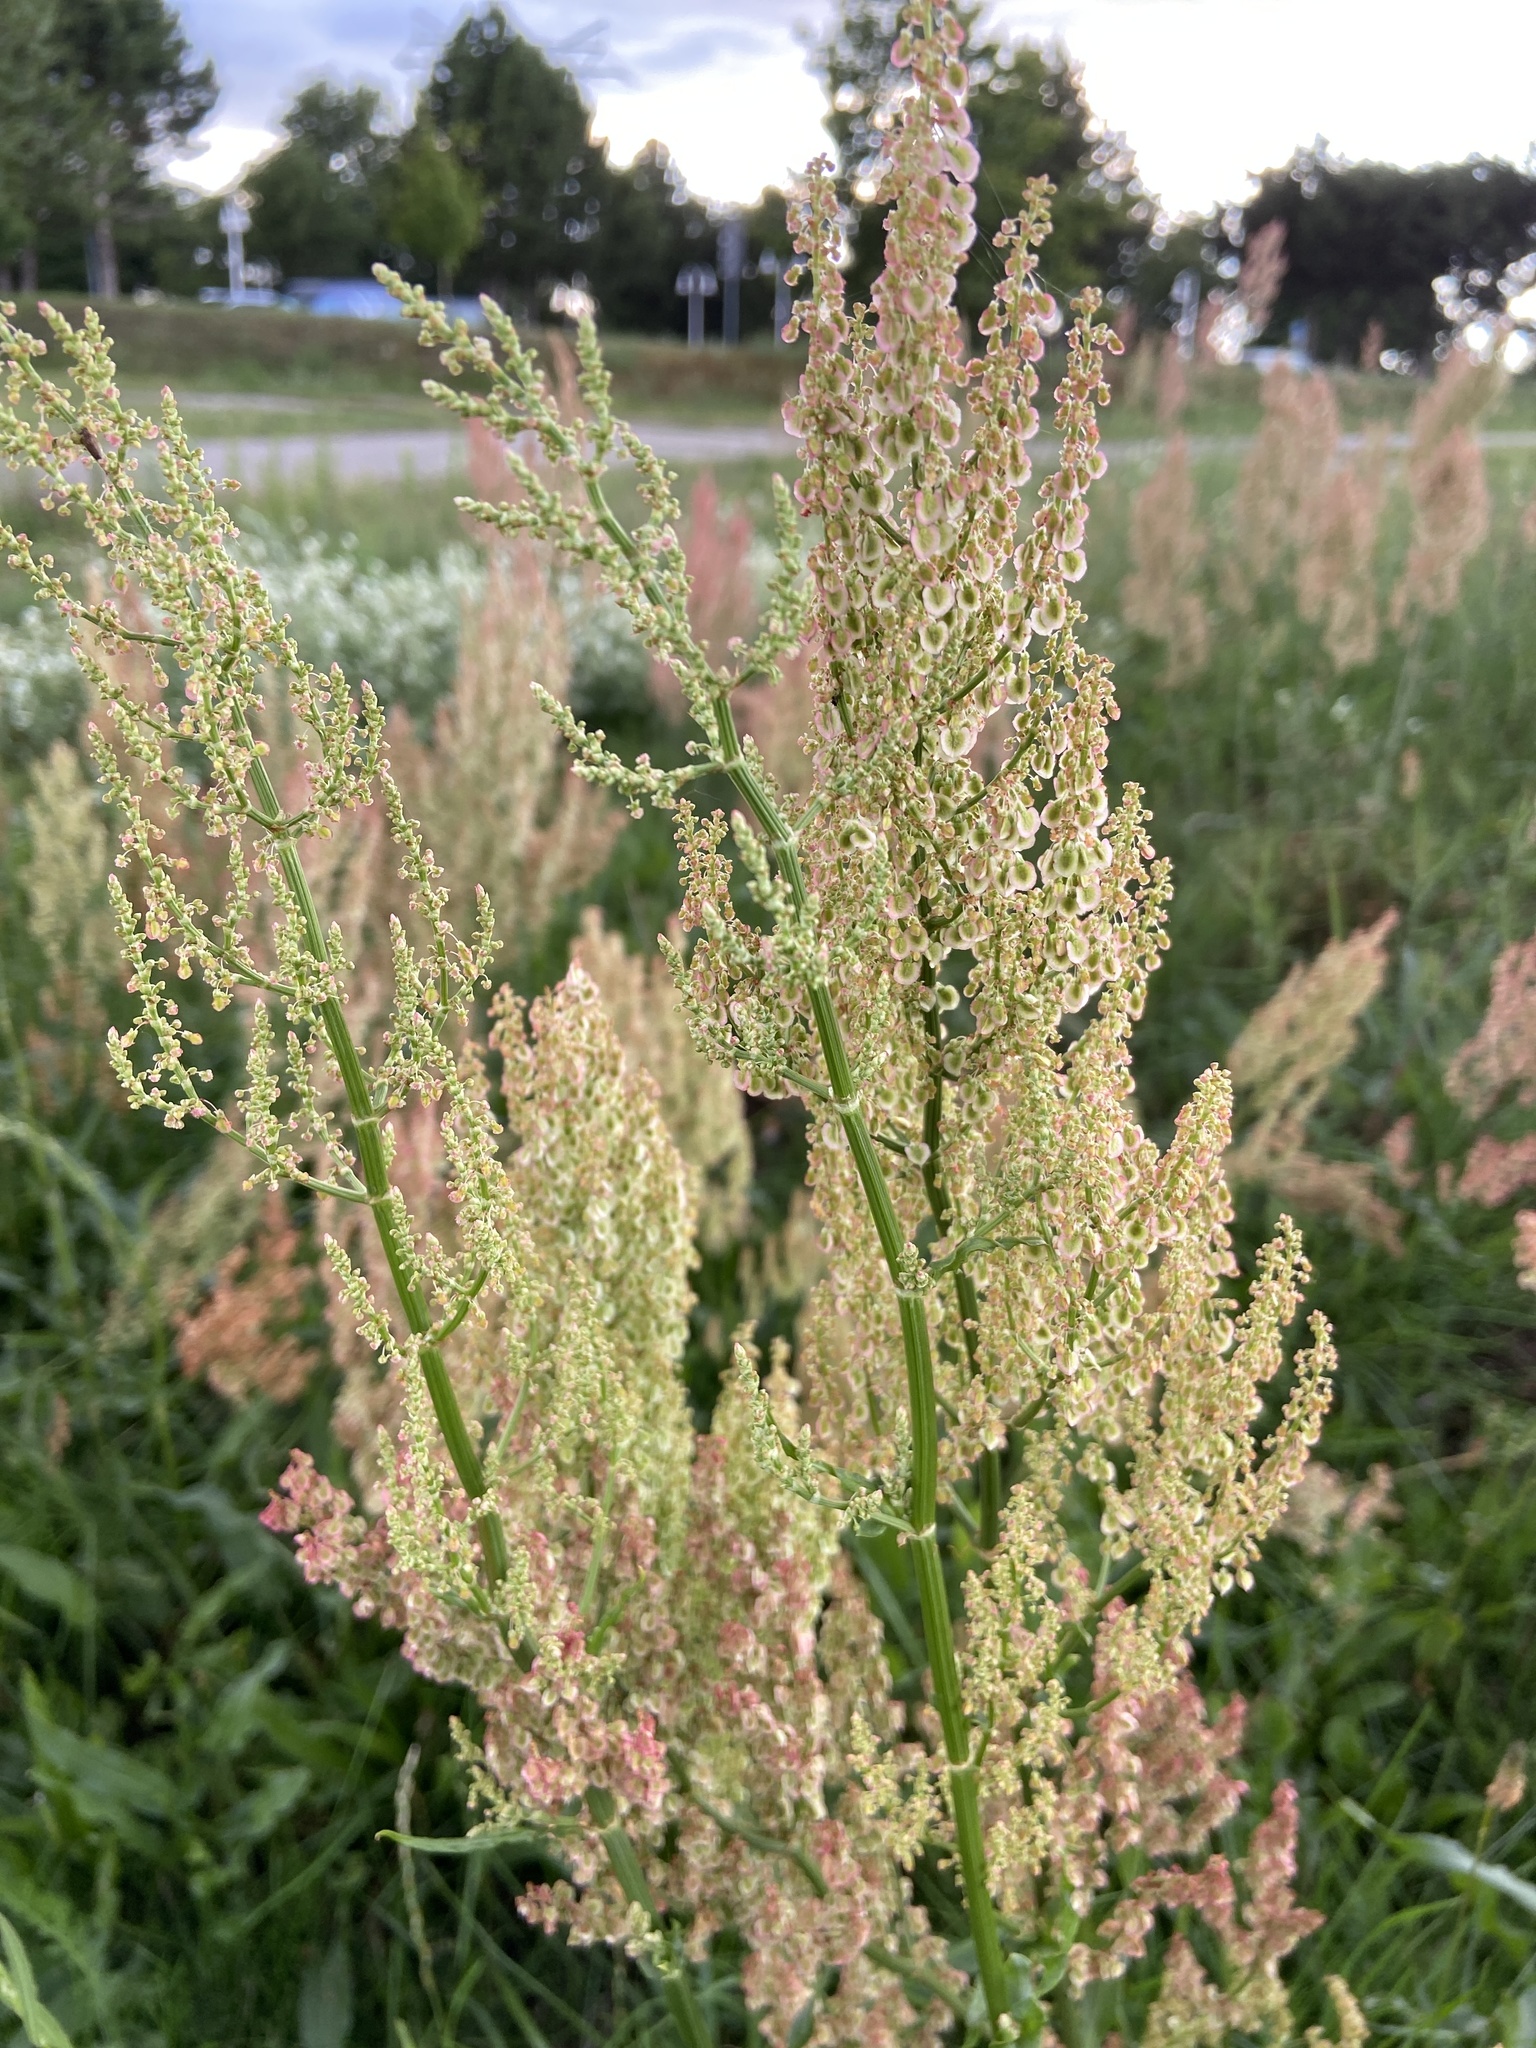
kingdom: Plantae
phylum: Tracheophyta
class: Magnoliopsida
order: Caryophyllales
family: Polygonaceae
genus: Rumex
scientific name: Rumex thyrsiflorus
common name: Garden sorrel
